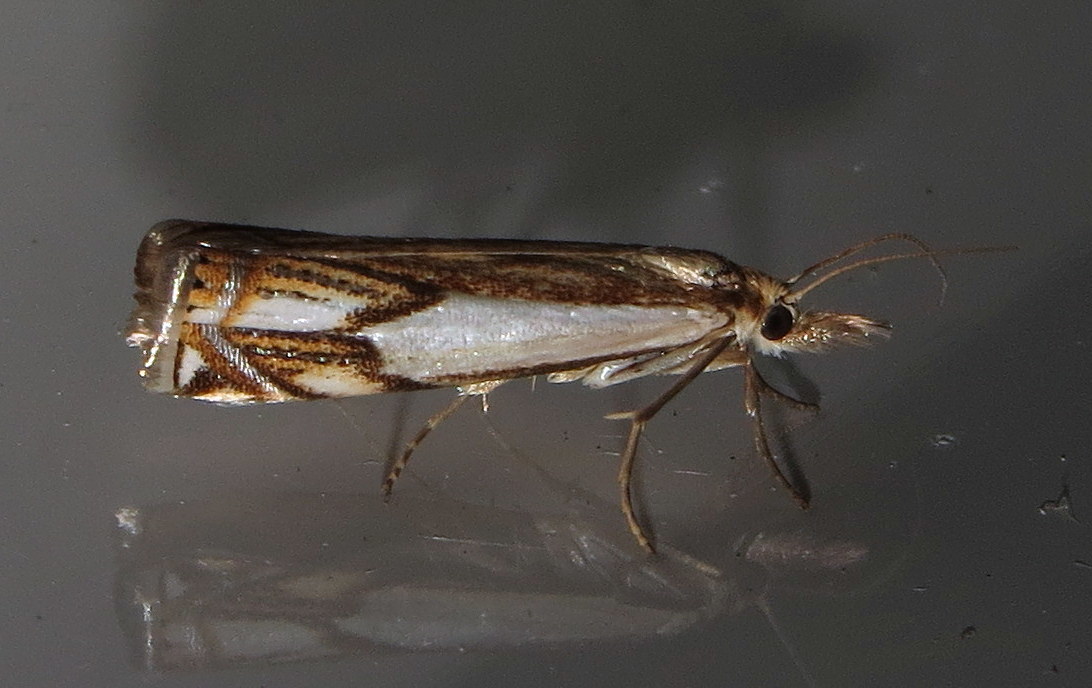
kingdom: Animalia
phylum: Arthropoda
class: Insecta
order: Lepidoptera
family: Crambidae
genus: Crambus
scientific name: Crambus agitatellus
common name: Double-banded grass-veneer
